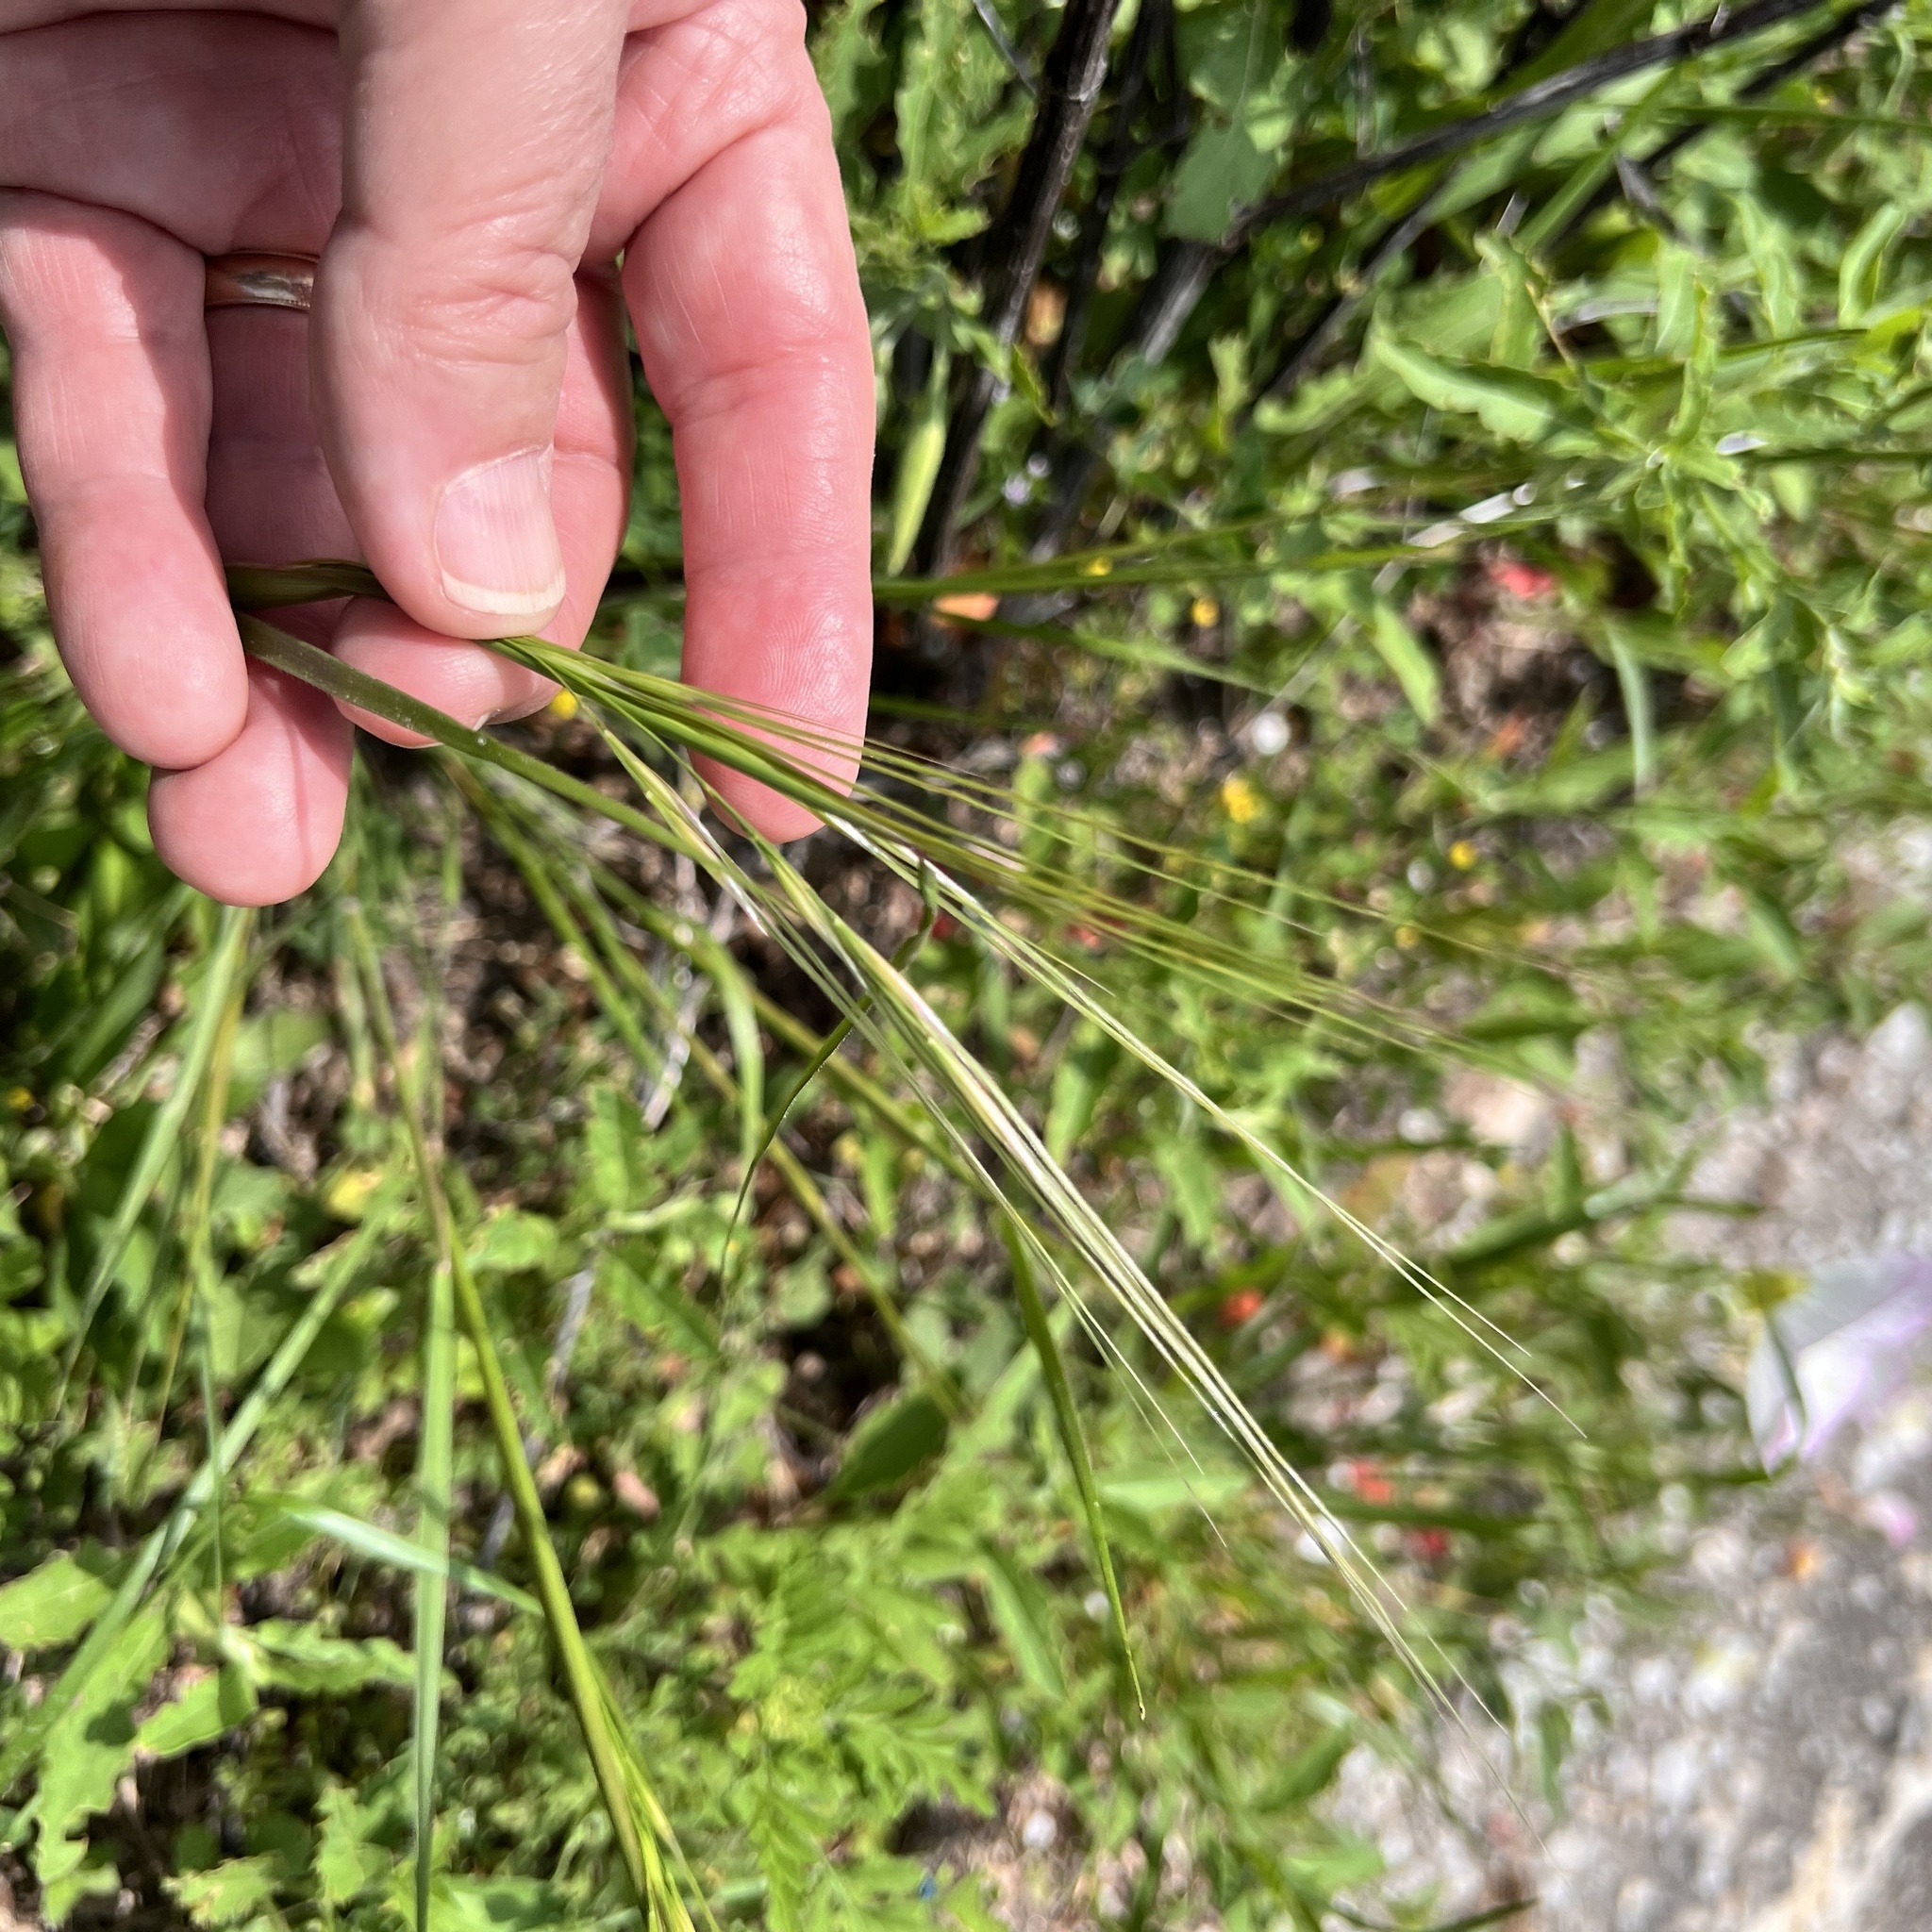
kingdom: Plantae
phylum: Tracheophyta
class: Liliopsida
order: Poales
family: Poaceae
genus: Nassella
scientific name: Nassella leucotricha
